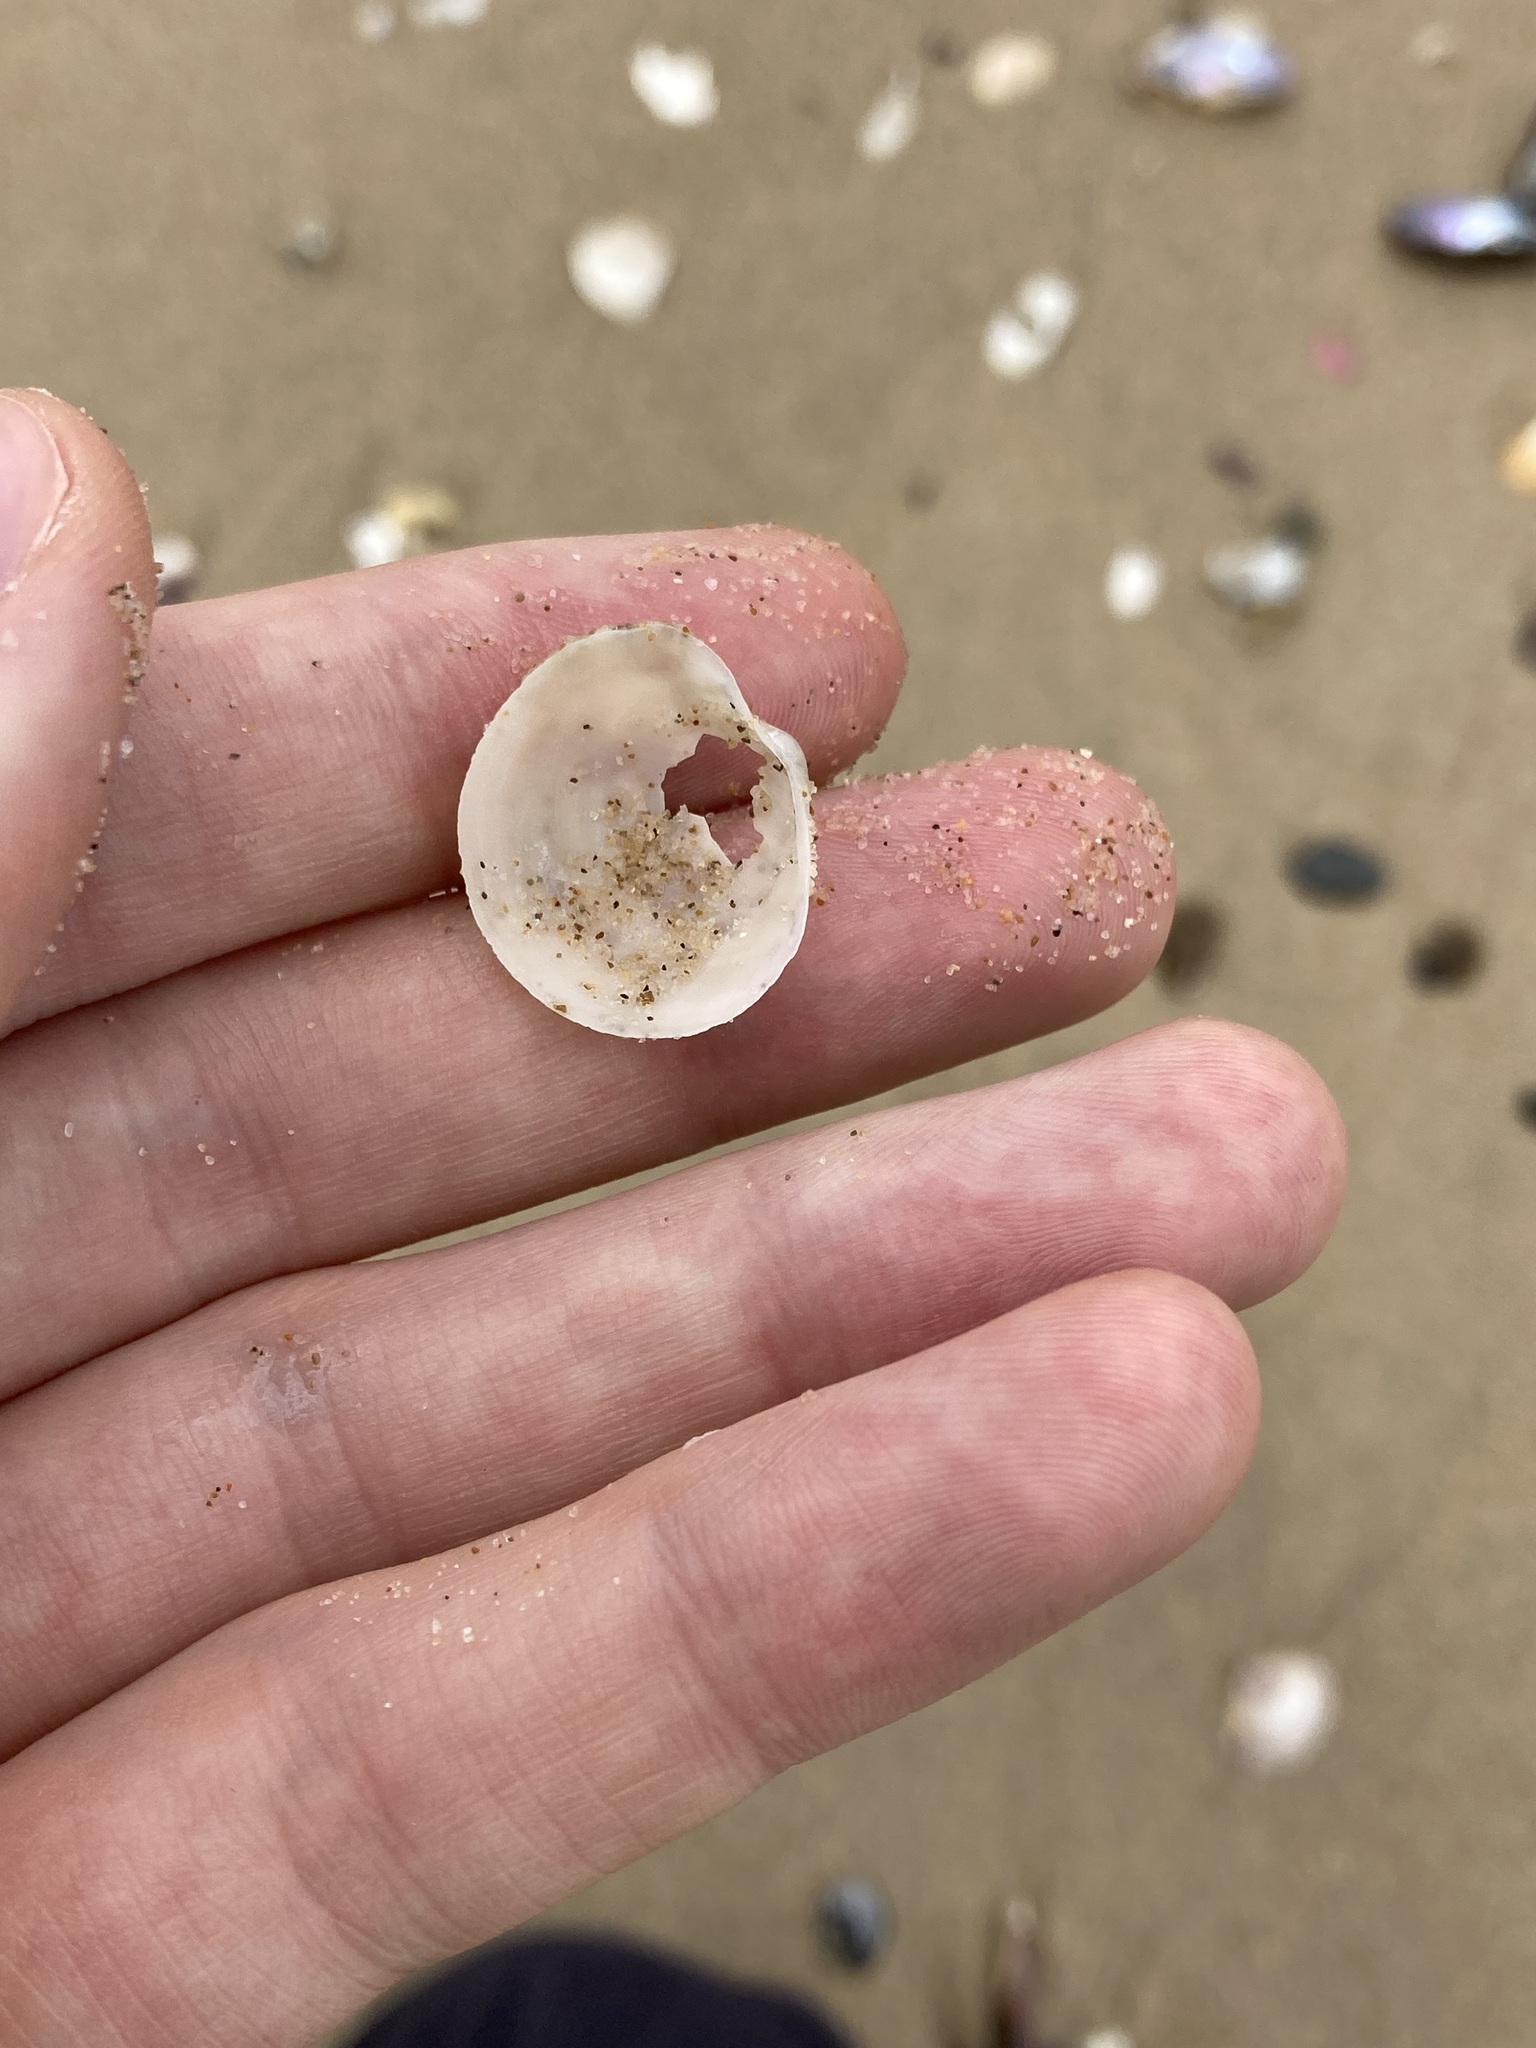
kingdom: Animalia
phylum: Mollusca
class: Bivalvia
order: Lucinida
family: Lucinidae
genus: Cavatidens
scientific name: Cavatidens omissa
